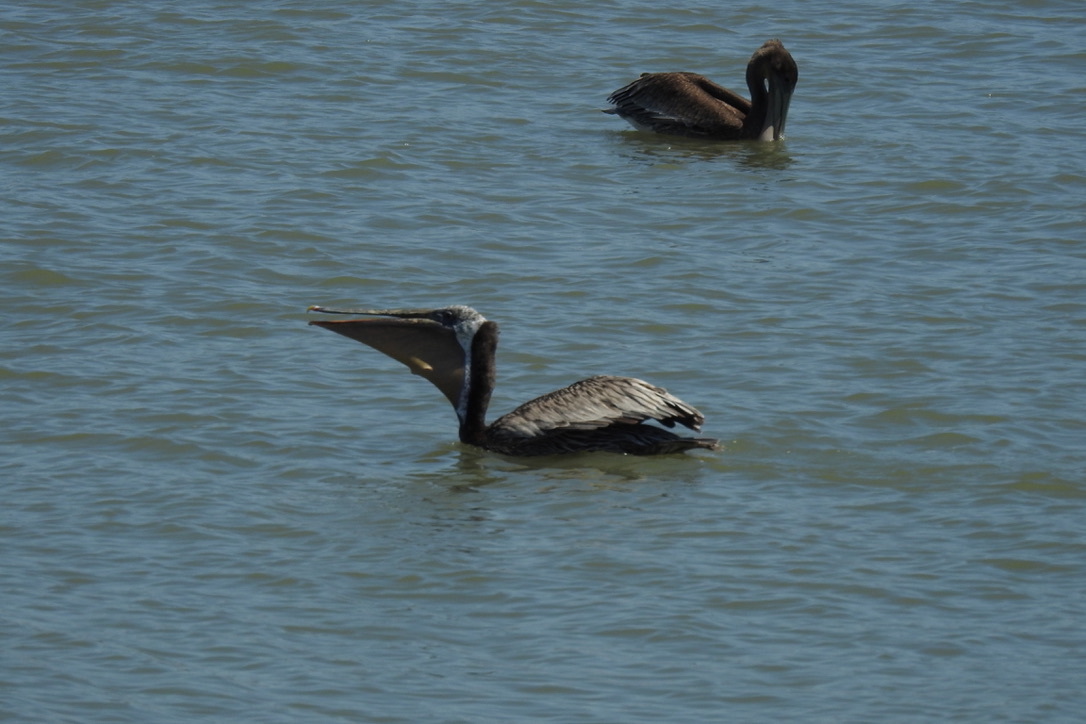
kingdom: Animalia
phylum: Chordata
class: Aves
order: Pelecaniformes
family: Pelecanidae
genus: Pelecanus
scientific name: Pelecanus occidentalis
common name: Brown pelican
